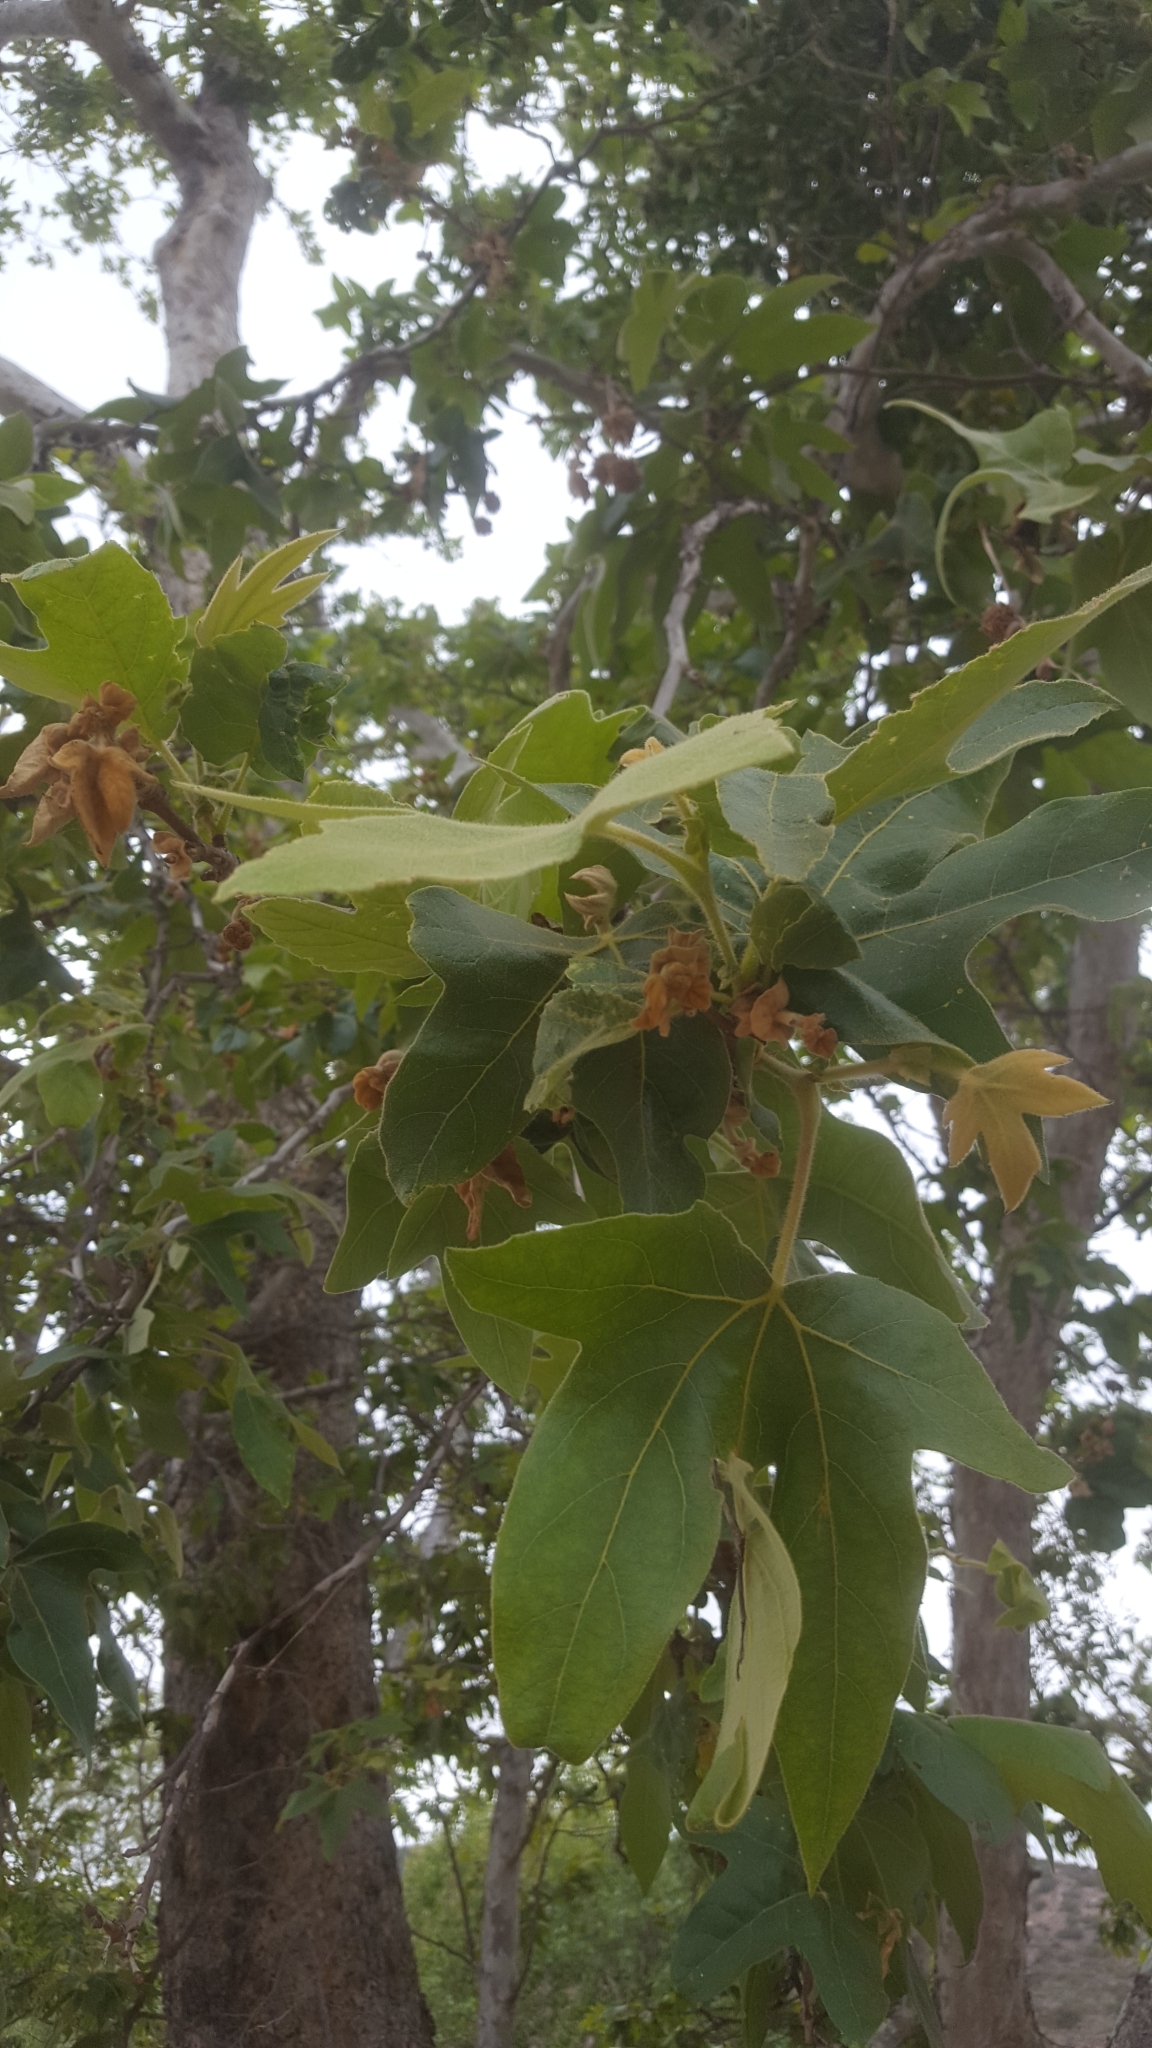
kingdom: Plantae
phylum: Tracheophyta
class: Magnoliopsida
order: Proteales
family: Platanaceae
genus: Platanus
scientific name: Platanus racemosa
